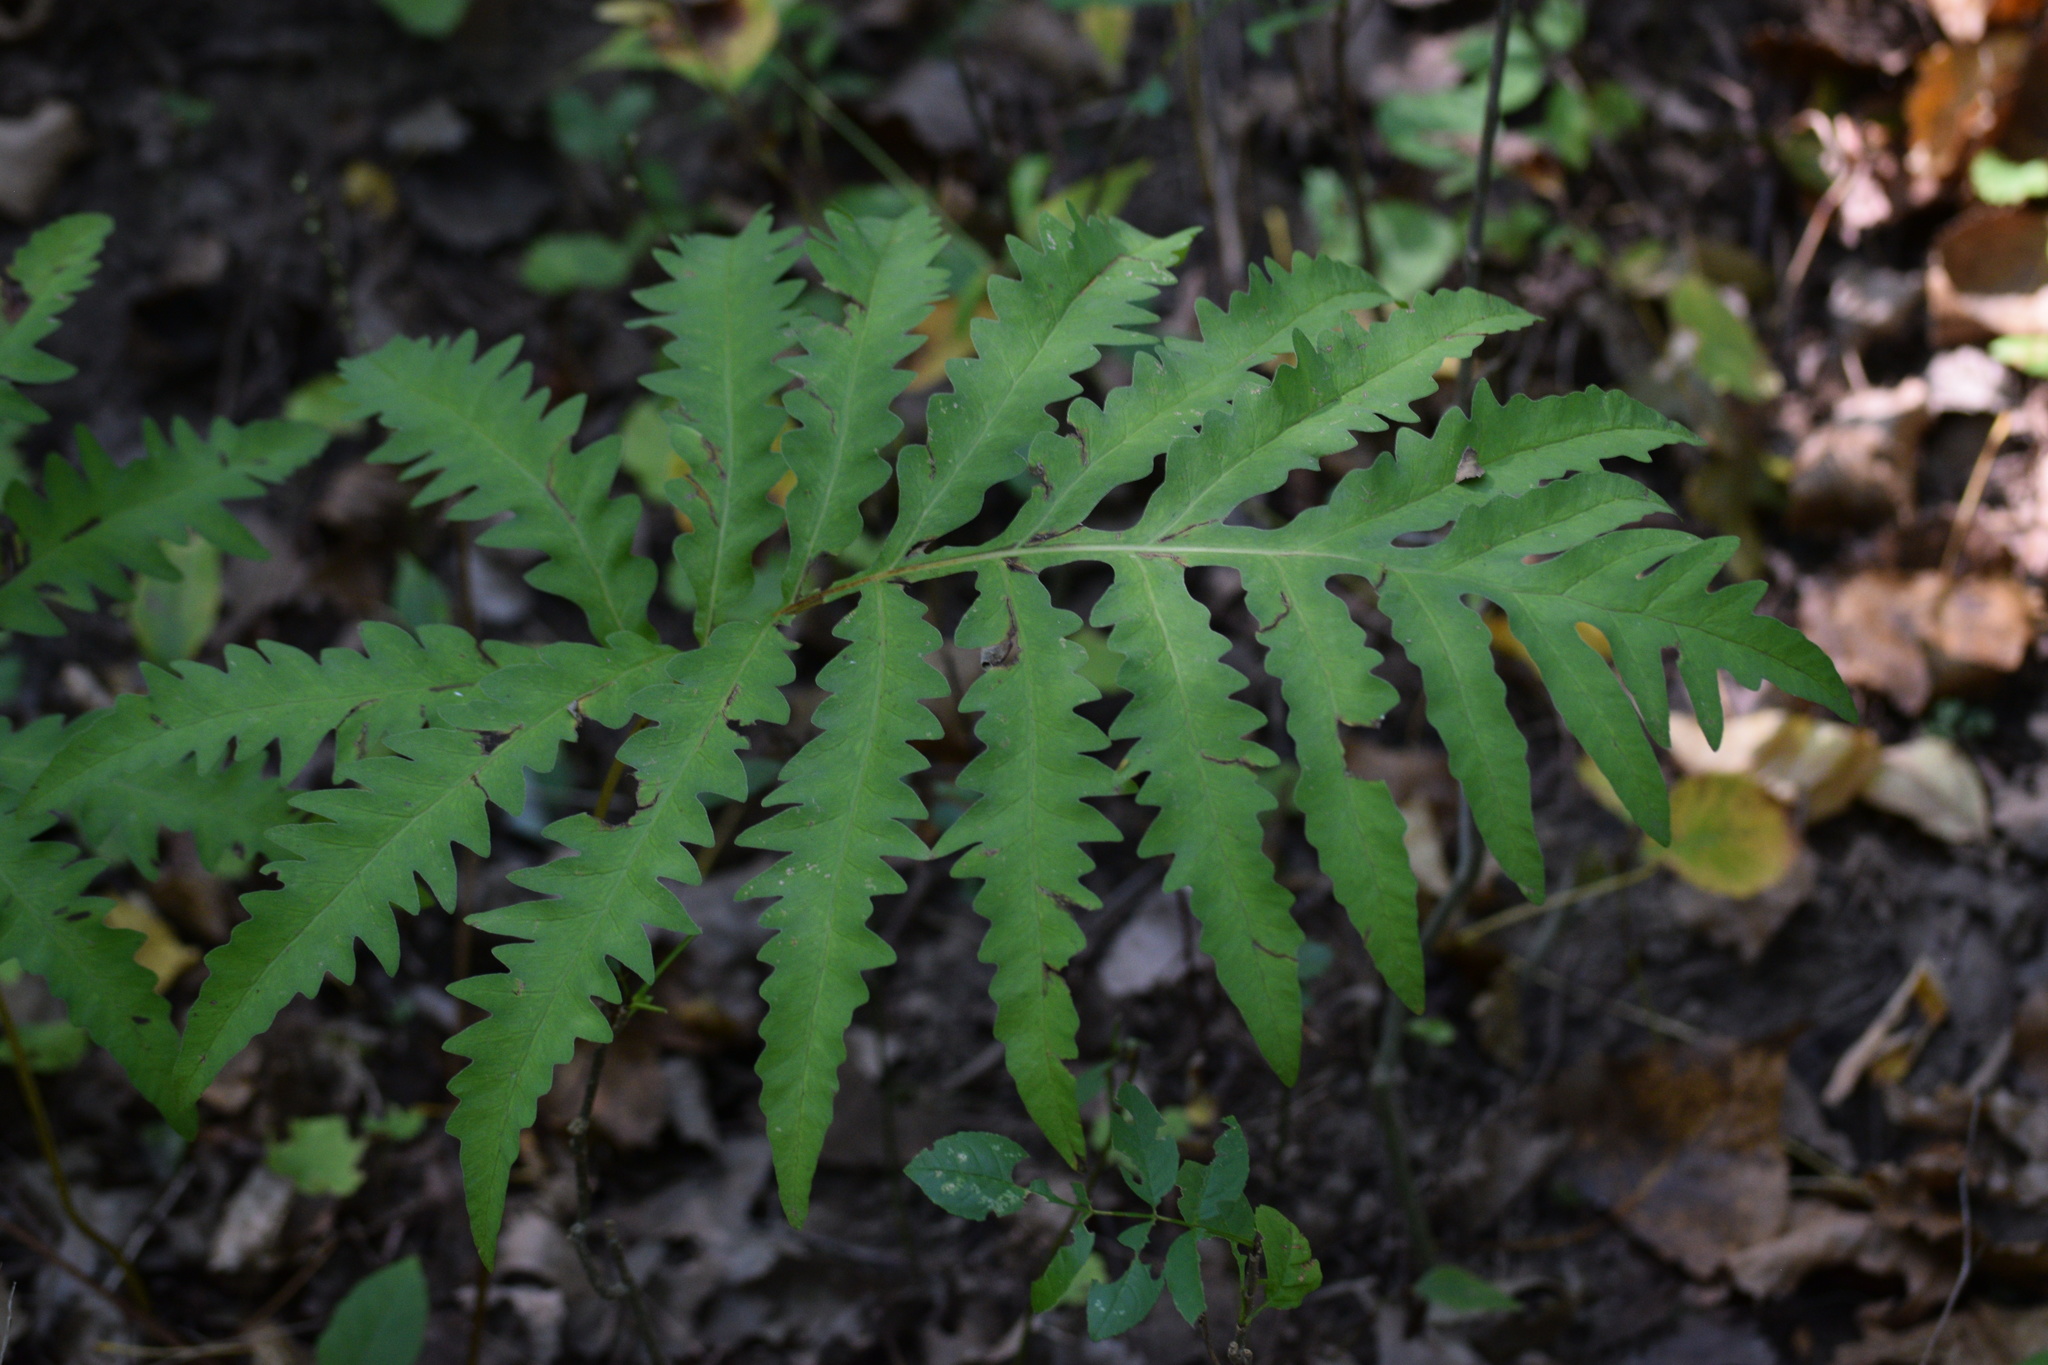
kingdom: Plantae
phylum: Tracheophyta
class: Polypodiopsida
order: Polypodiales
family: Onocleaceae
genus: Onoclea
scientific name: Onoclea sensibilis
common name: Sensitive fern
